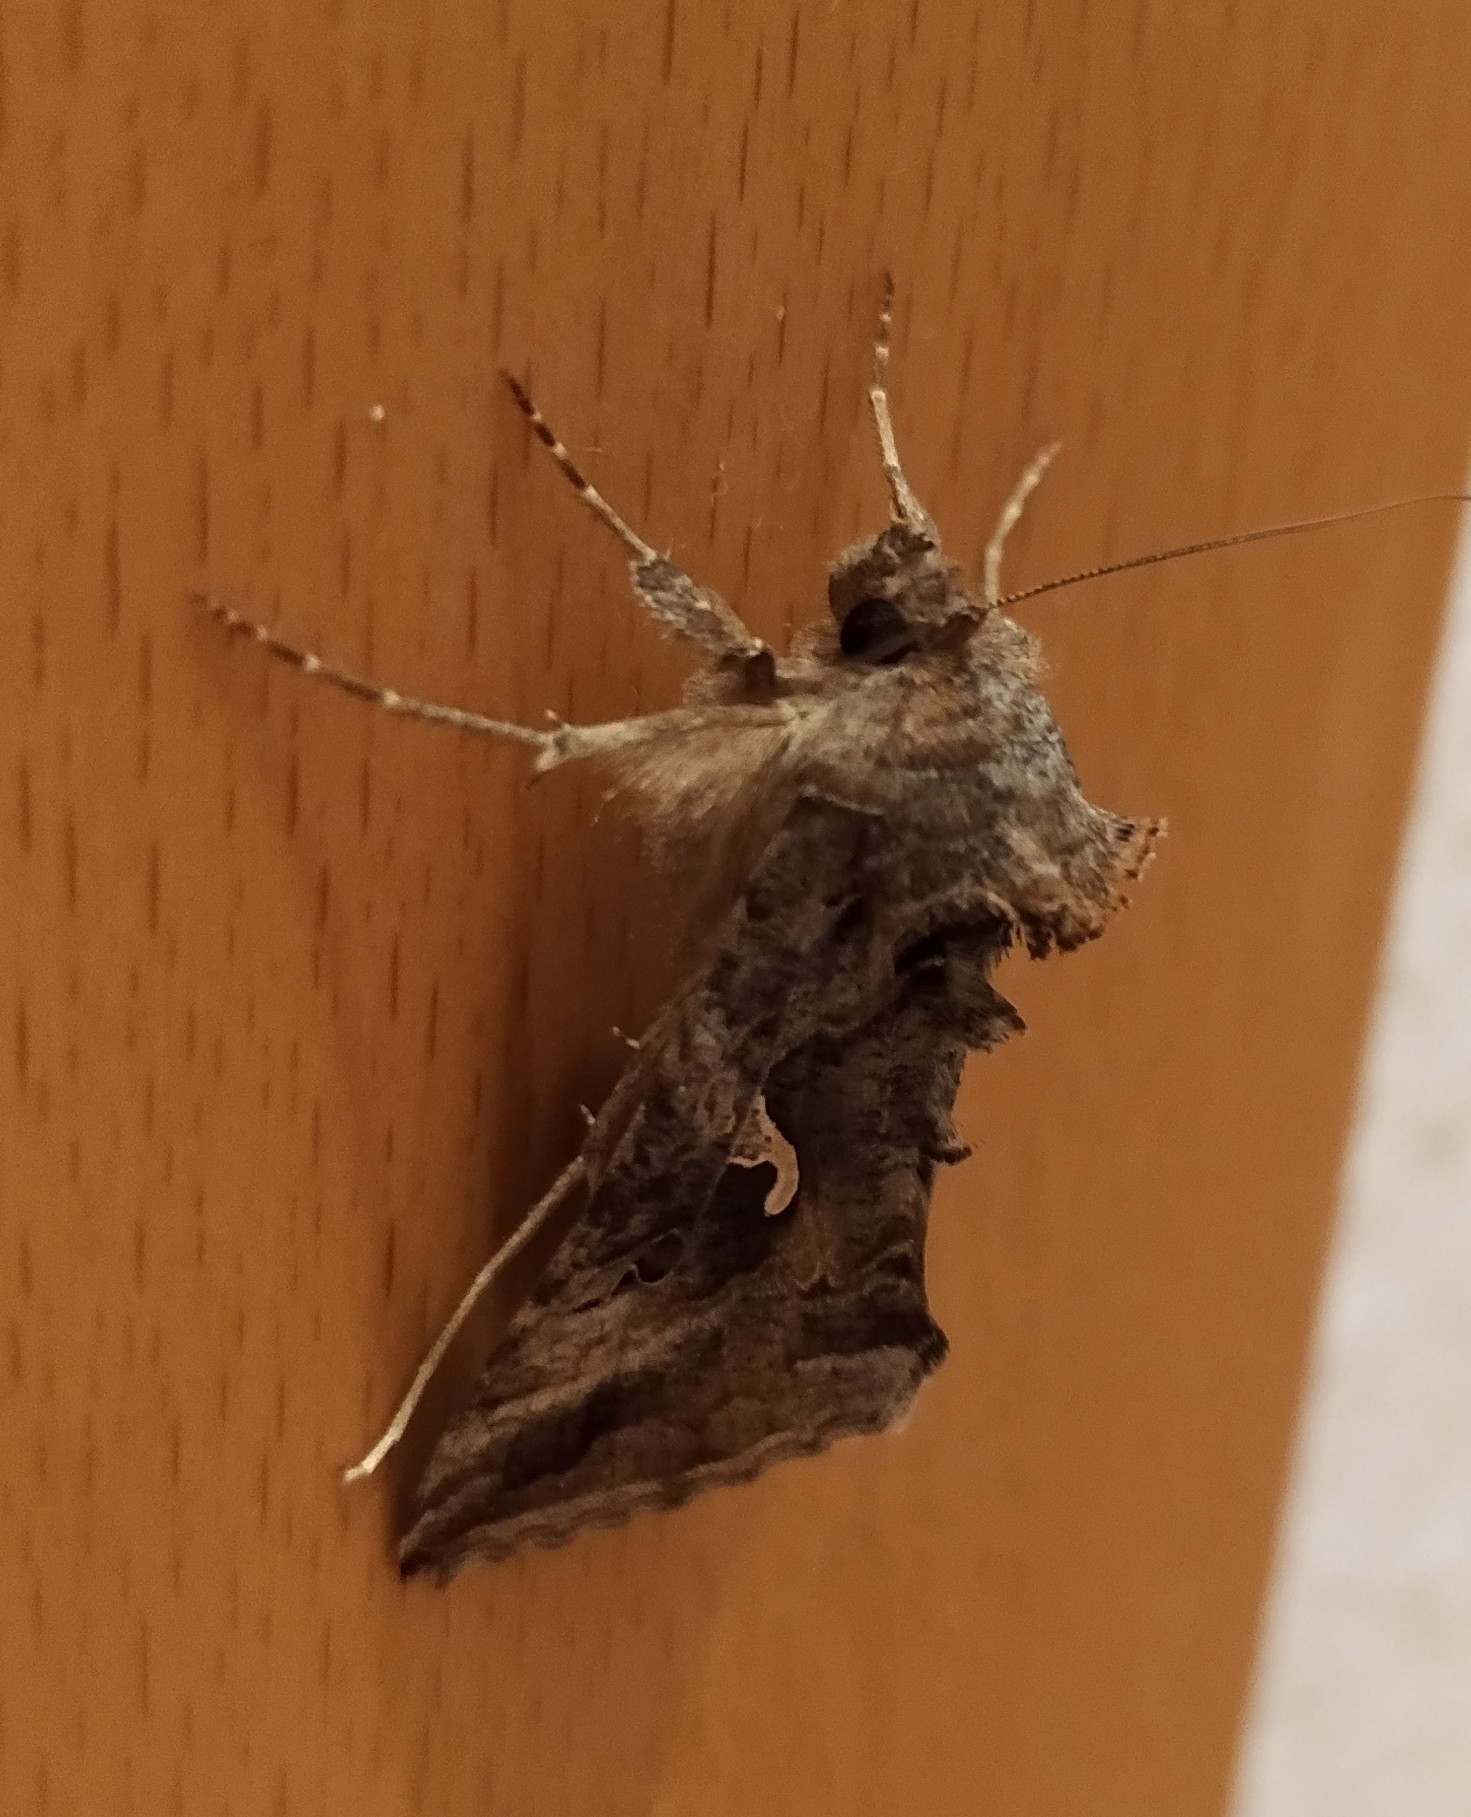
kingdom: Animalia
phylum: Arthropoda
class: Insecta
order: Lepidoptera
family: Noctuidae
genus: Autographa
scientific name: Autographa gamma
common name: Silver y
